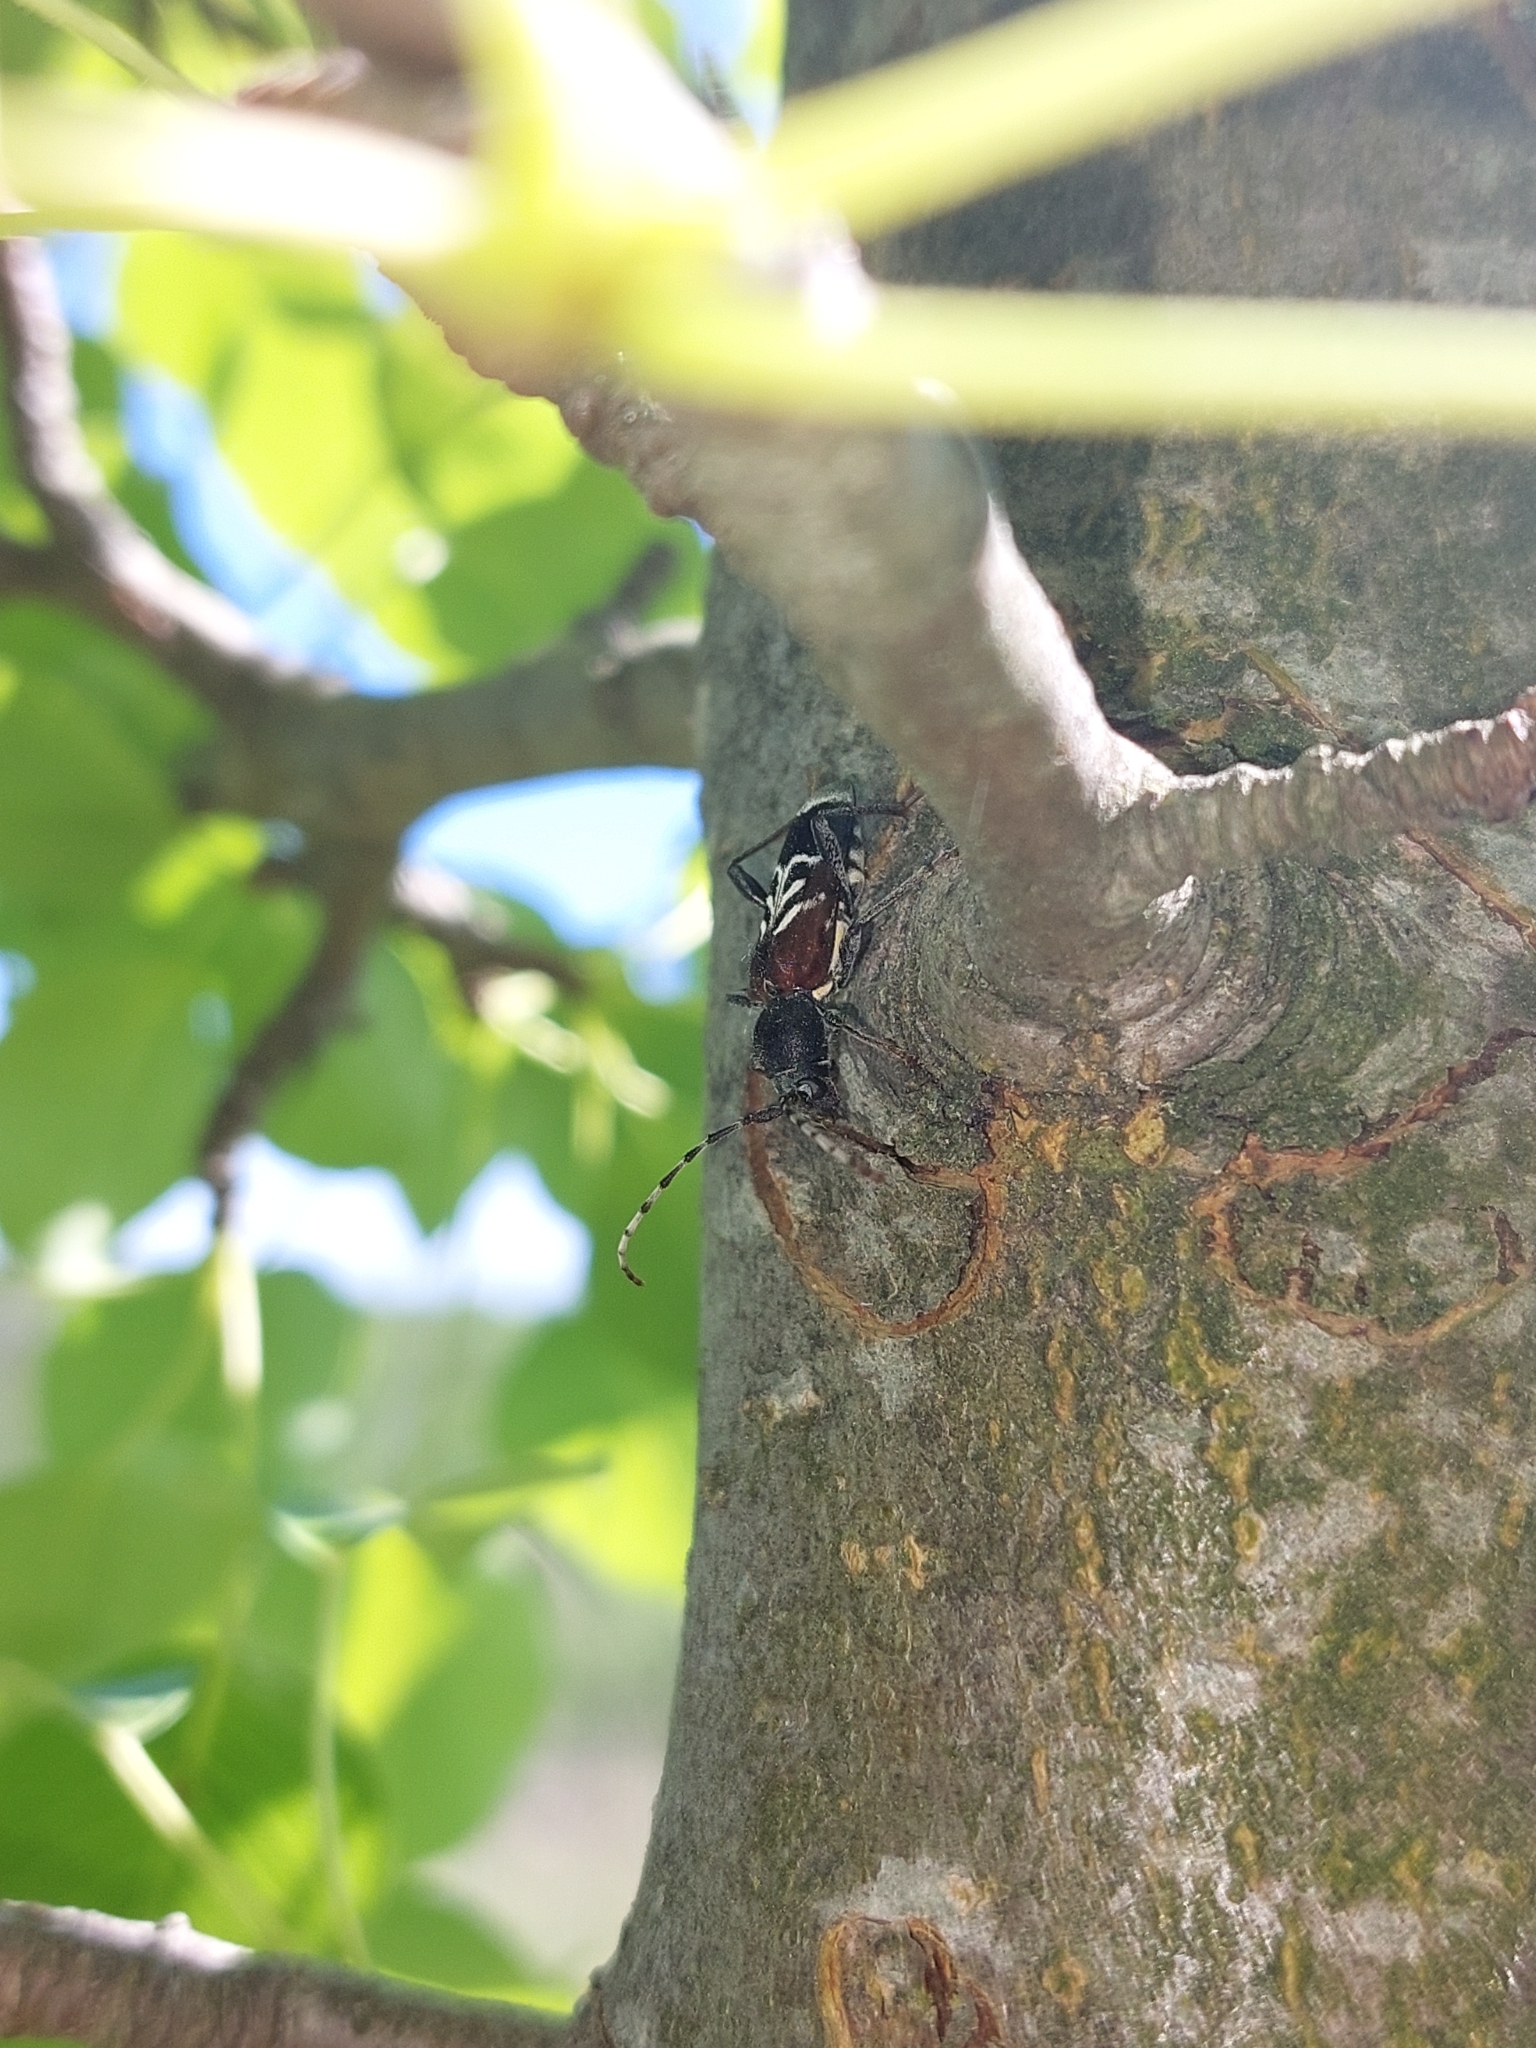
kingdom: Animalia
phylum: Arthropoda
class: Insecta
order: Coleoptera
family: Cerambycidae
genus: Anaglyptus
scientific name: Anaglyptus mysticus
